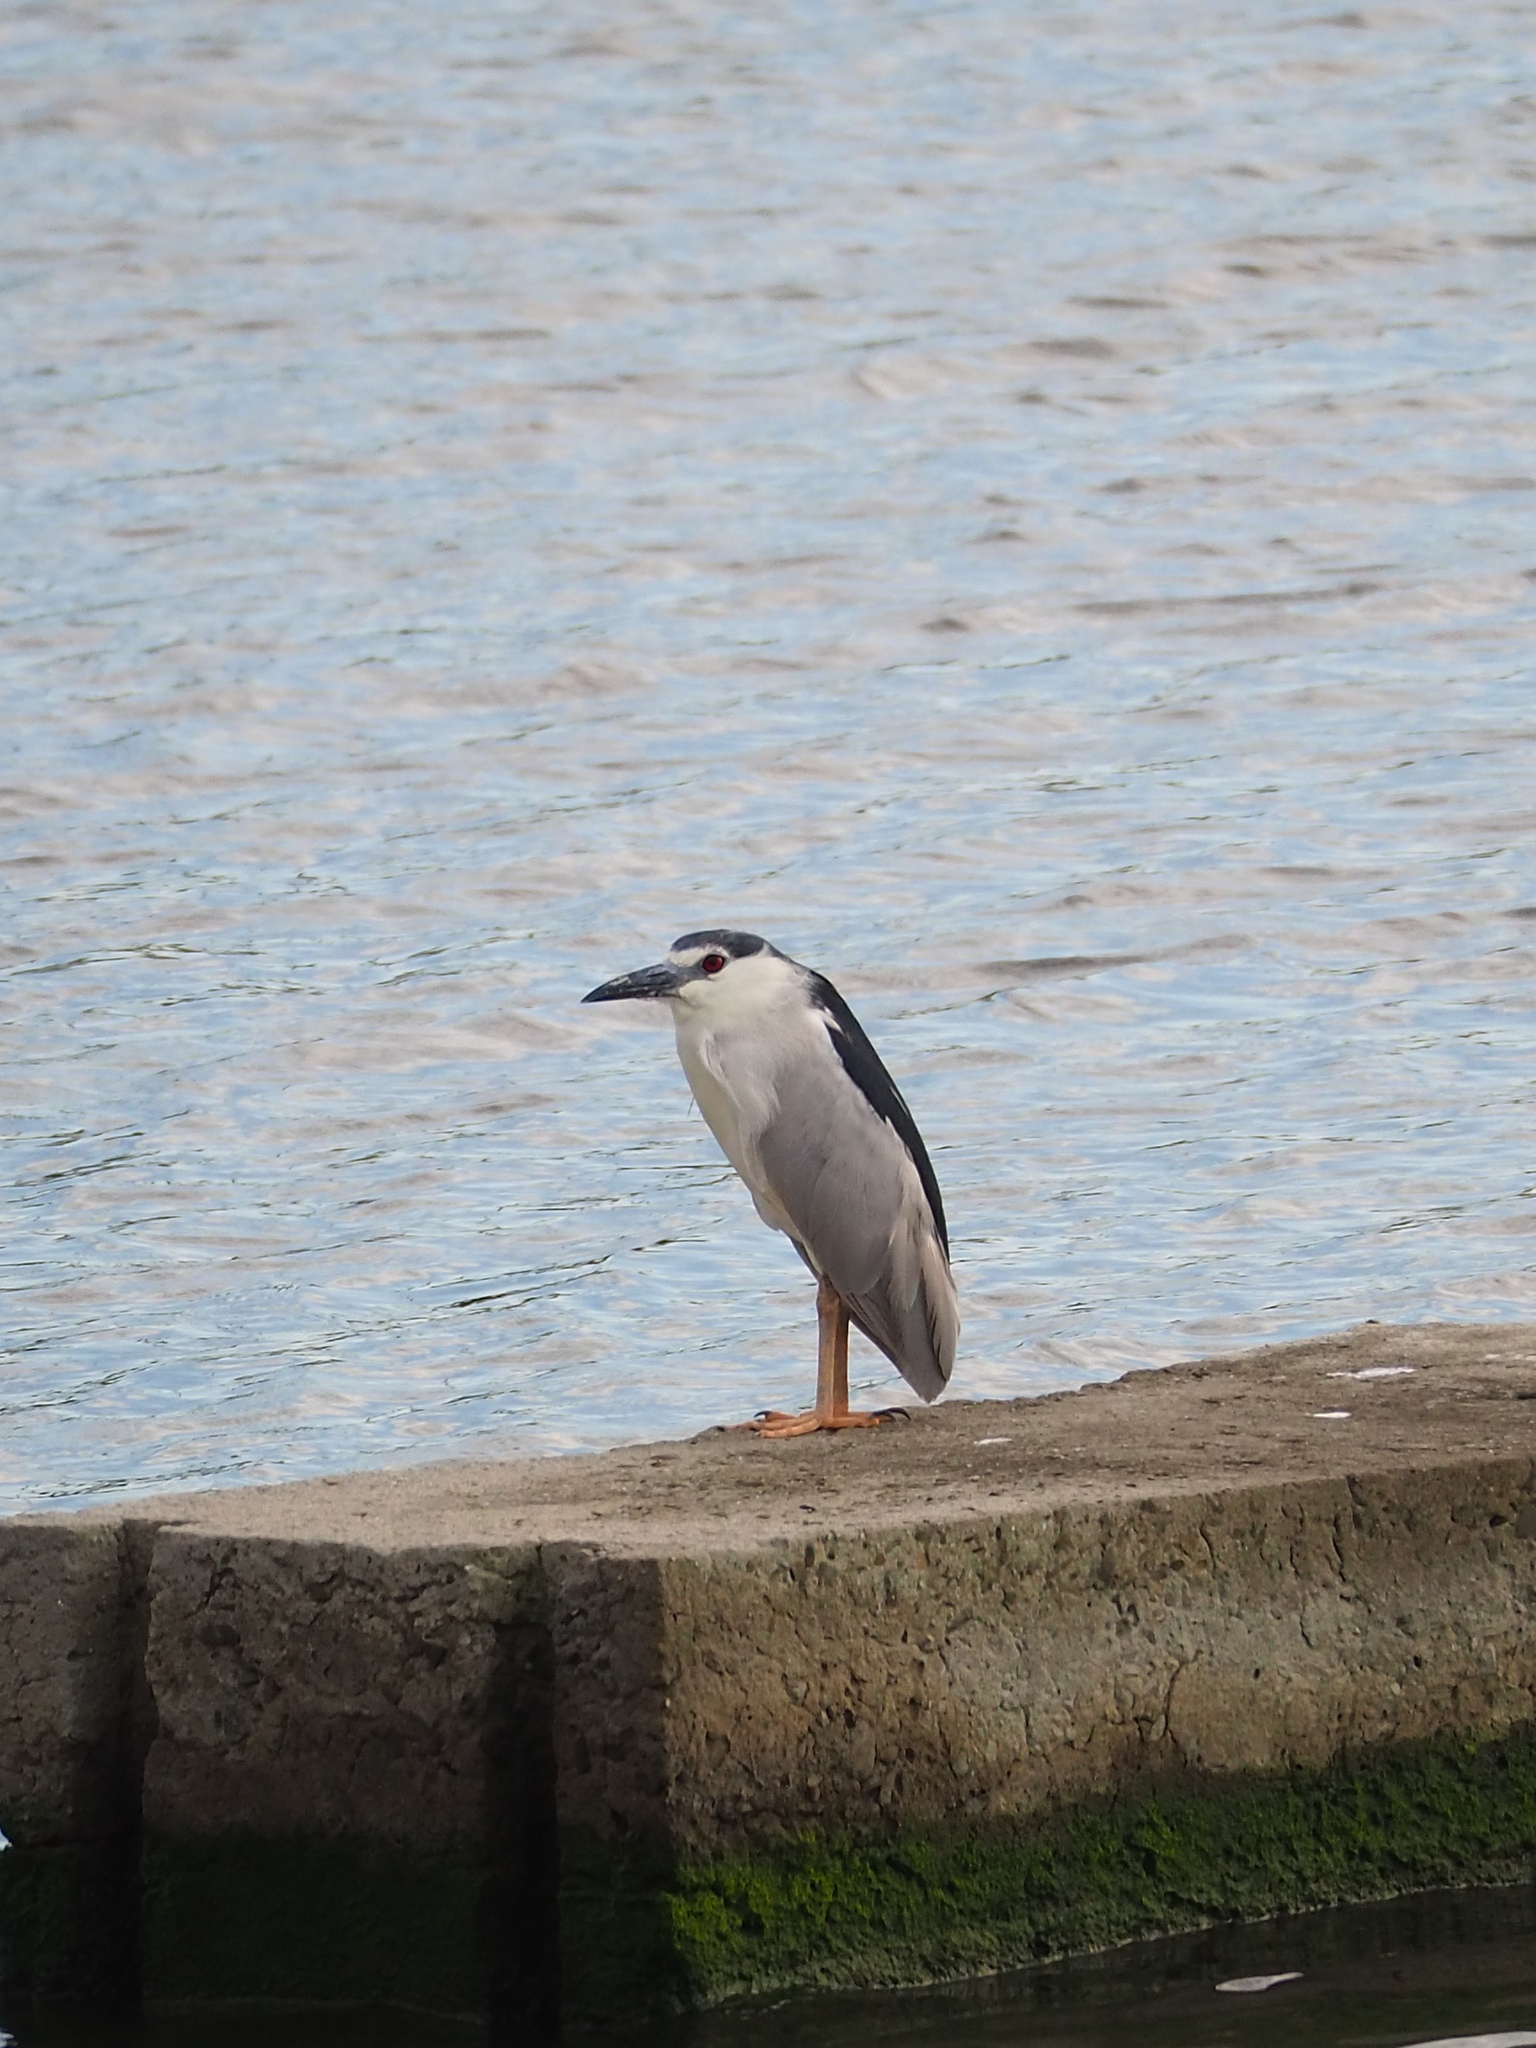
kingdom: Animalia
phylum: Chordata
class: Aves
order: Pelecaniformes
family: Ardeidae
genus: Nycticorax
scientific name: Nycticorax nycticorax
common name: Black-crowned night heron
